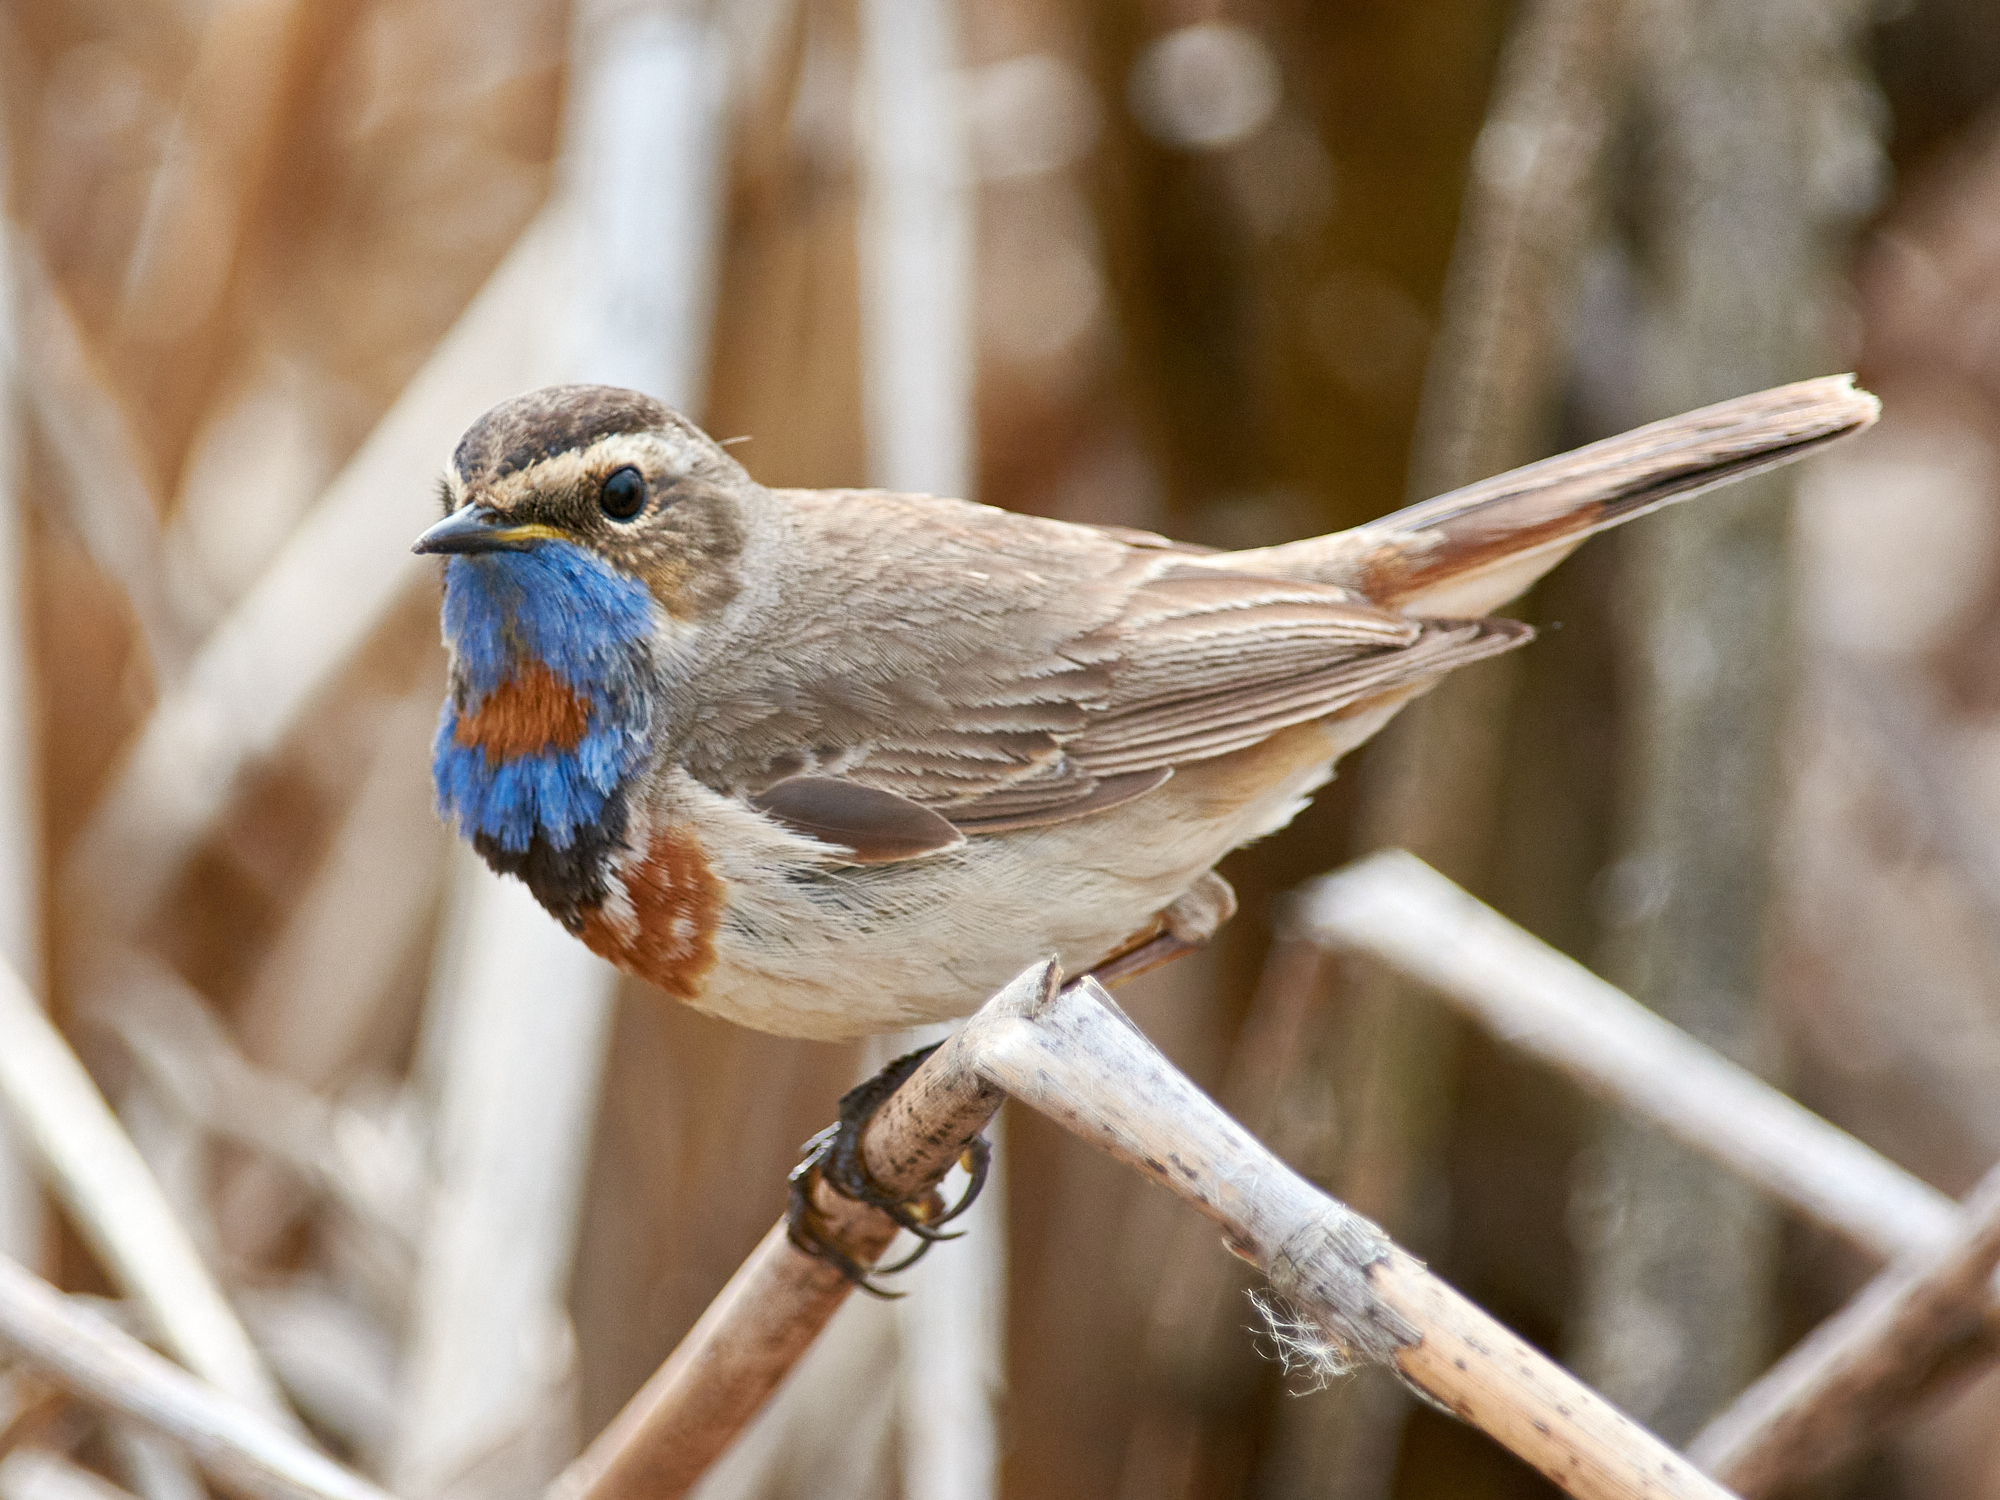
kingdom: Animalia
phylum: Chordata
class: Aves
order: Passeriformes
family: Muscicapidae
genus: Luscinia
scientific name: Luscinia svecica
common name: Bluethroat
